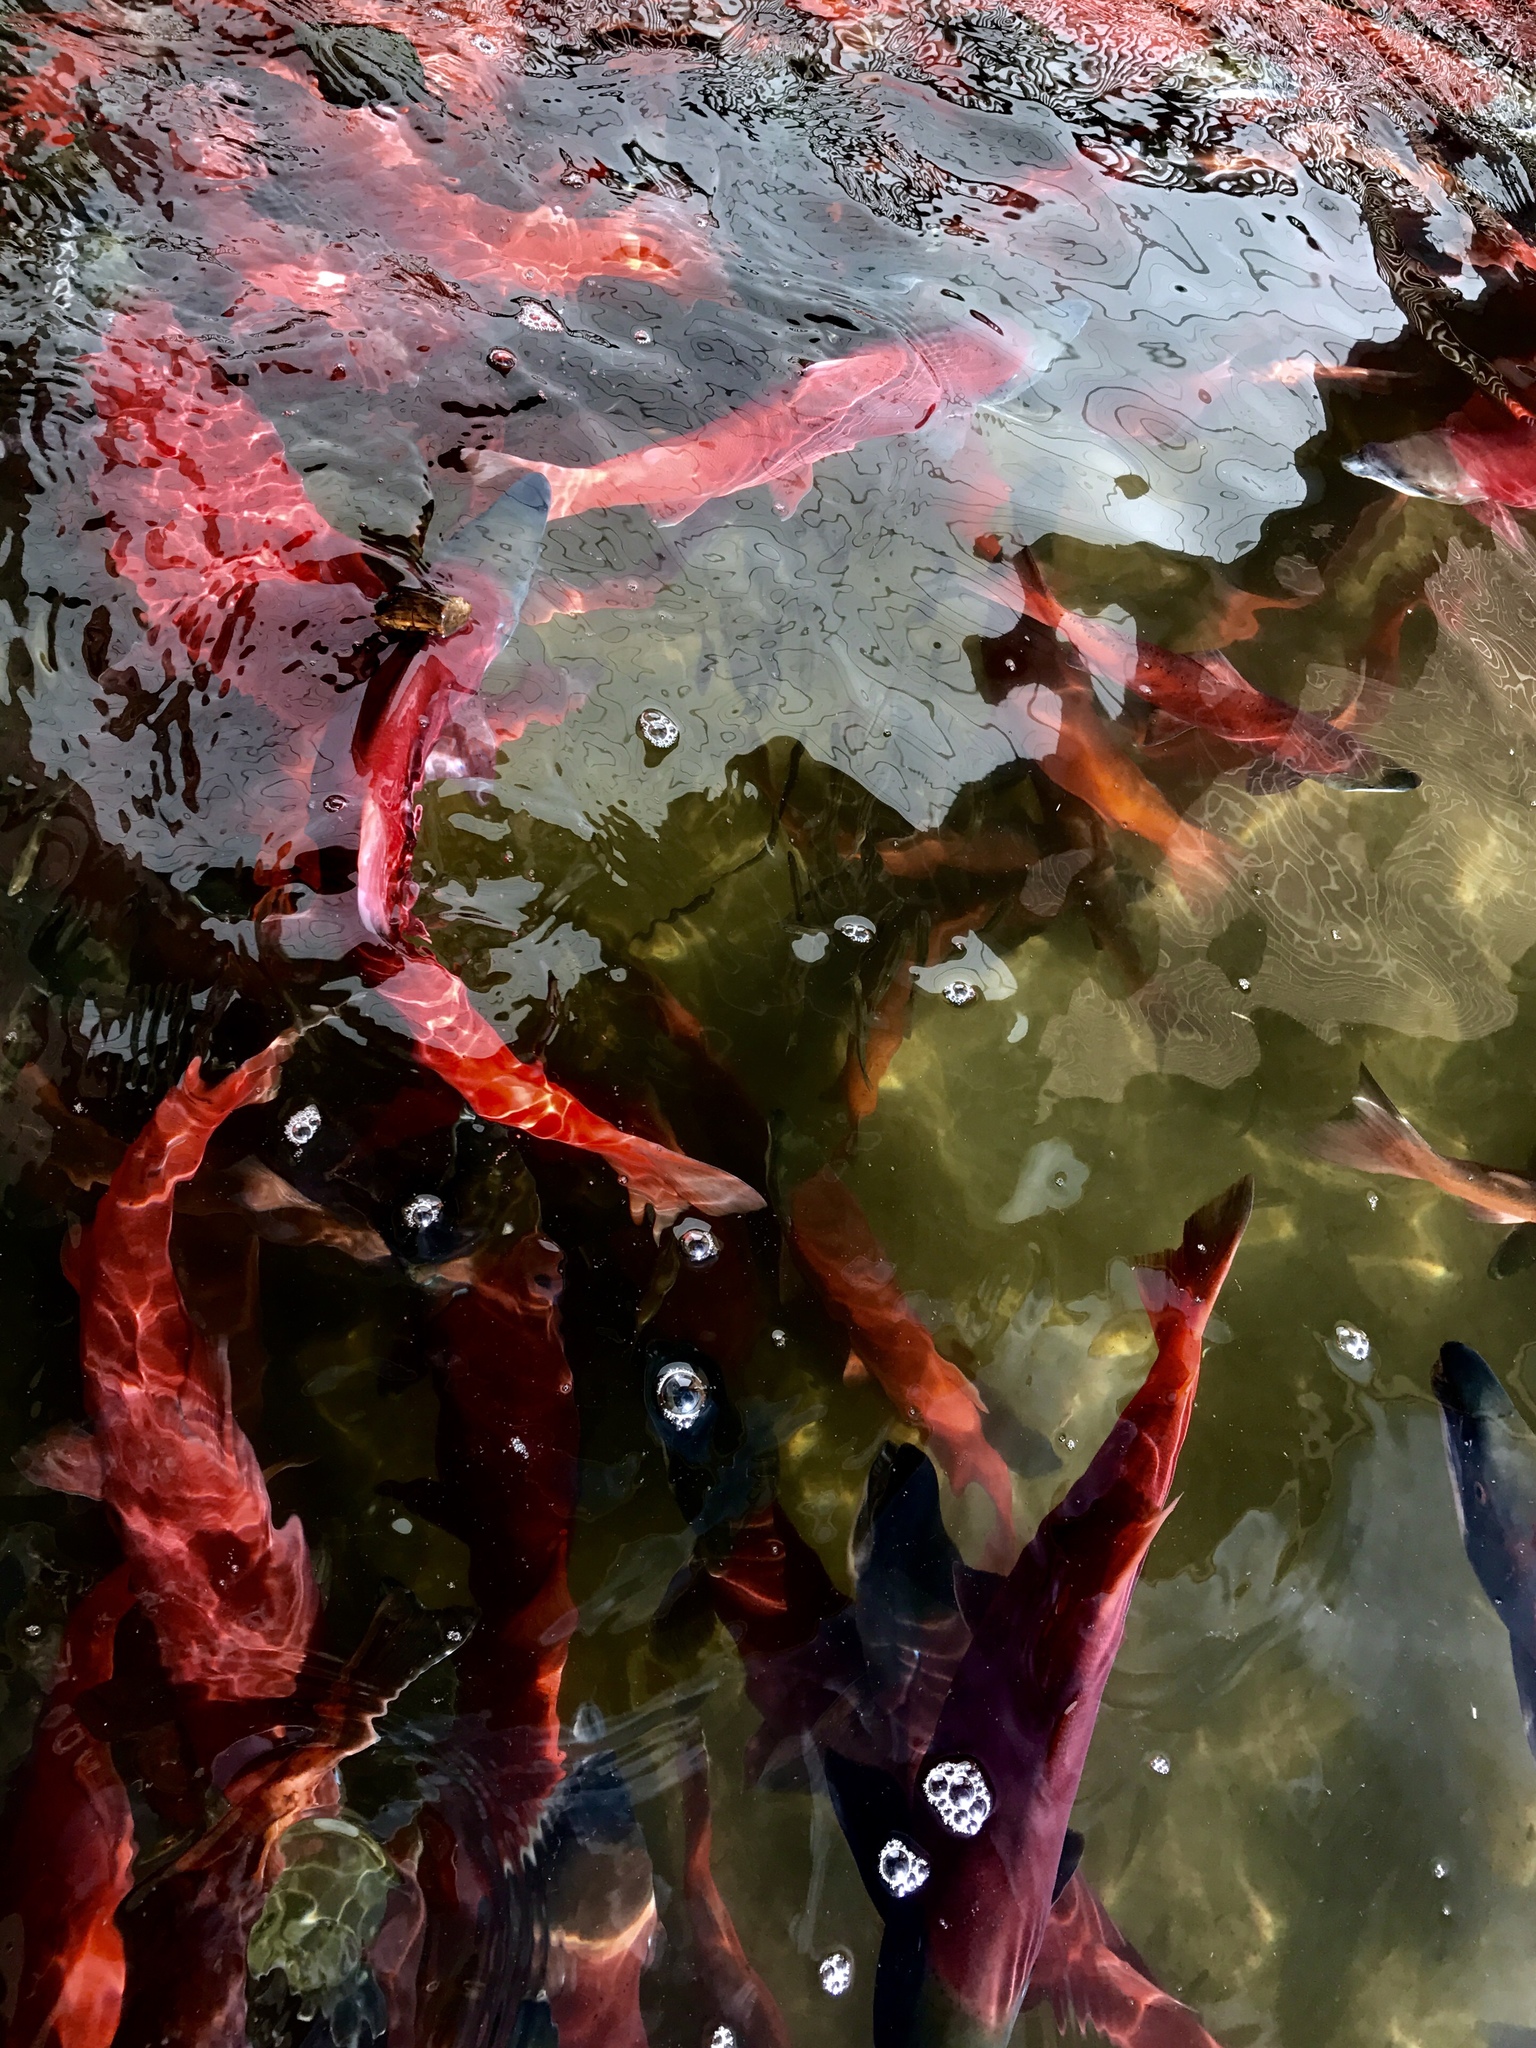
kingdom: Animalia
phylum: Chordata
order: Salmoniformes
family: Salmonidae
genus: Oncorhynchus
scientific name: Oncorhynchus nerka
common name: Sockeye salmon
